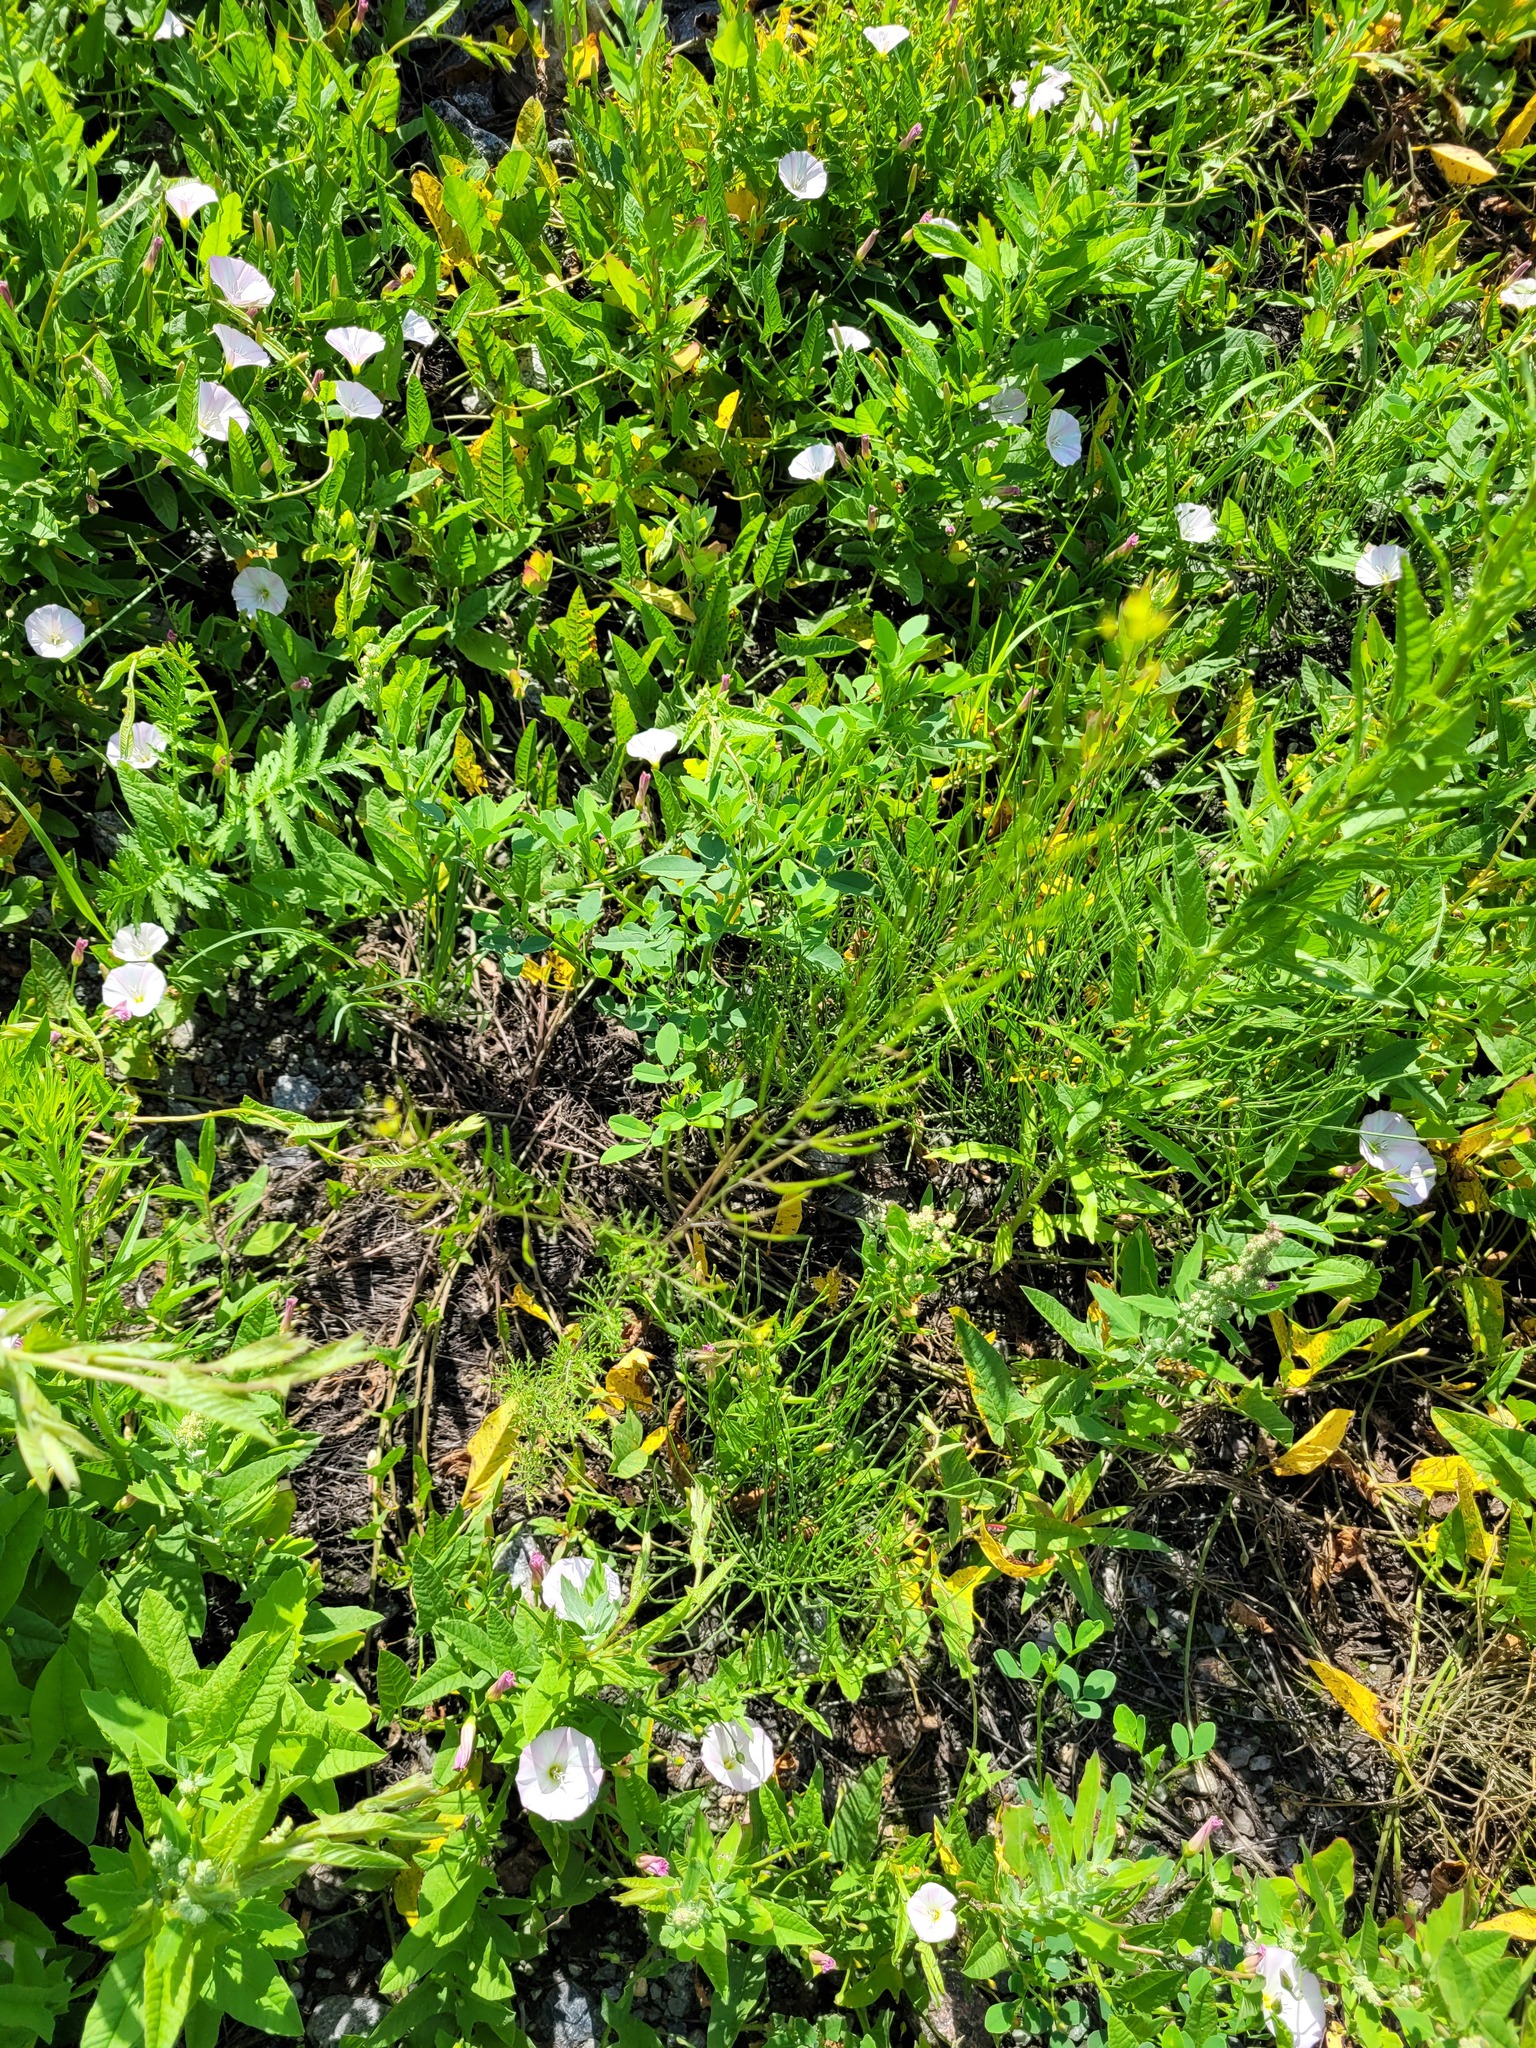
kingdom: Plantae
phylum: Tracheophyta
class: Magnoliopsida
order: Brassicales
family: Brassicaceae
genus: Descurainia
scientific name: Descurainia sophia
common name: Flixweed
